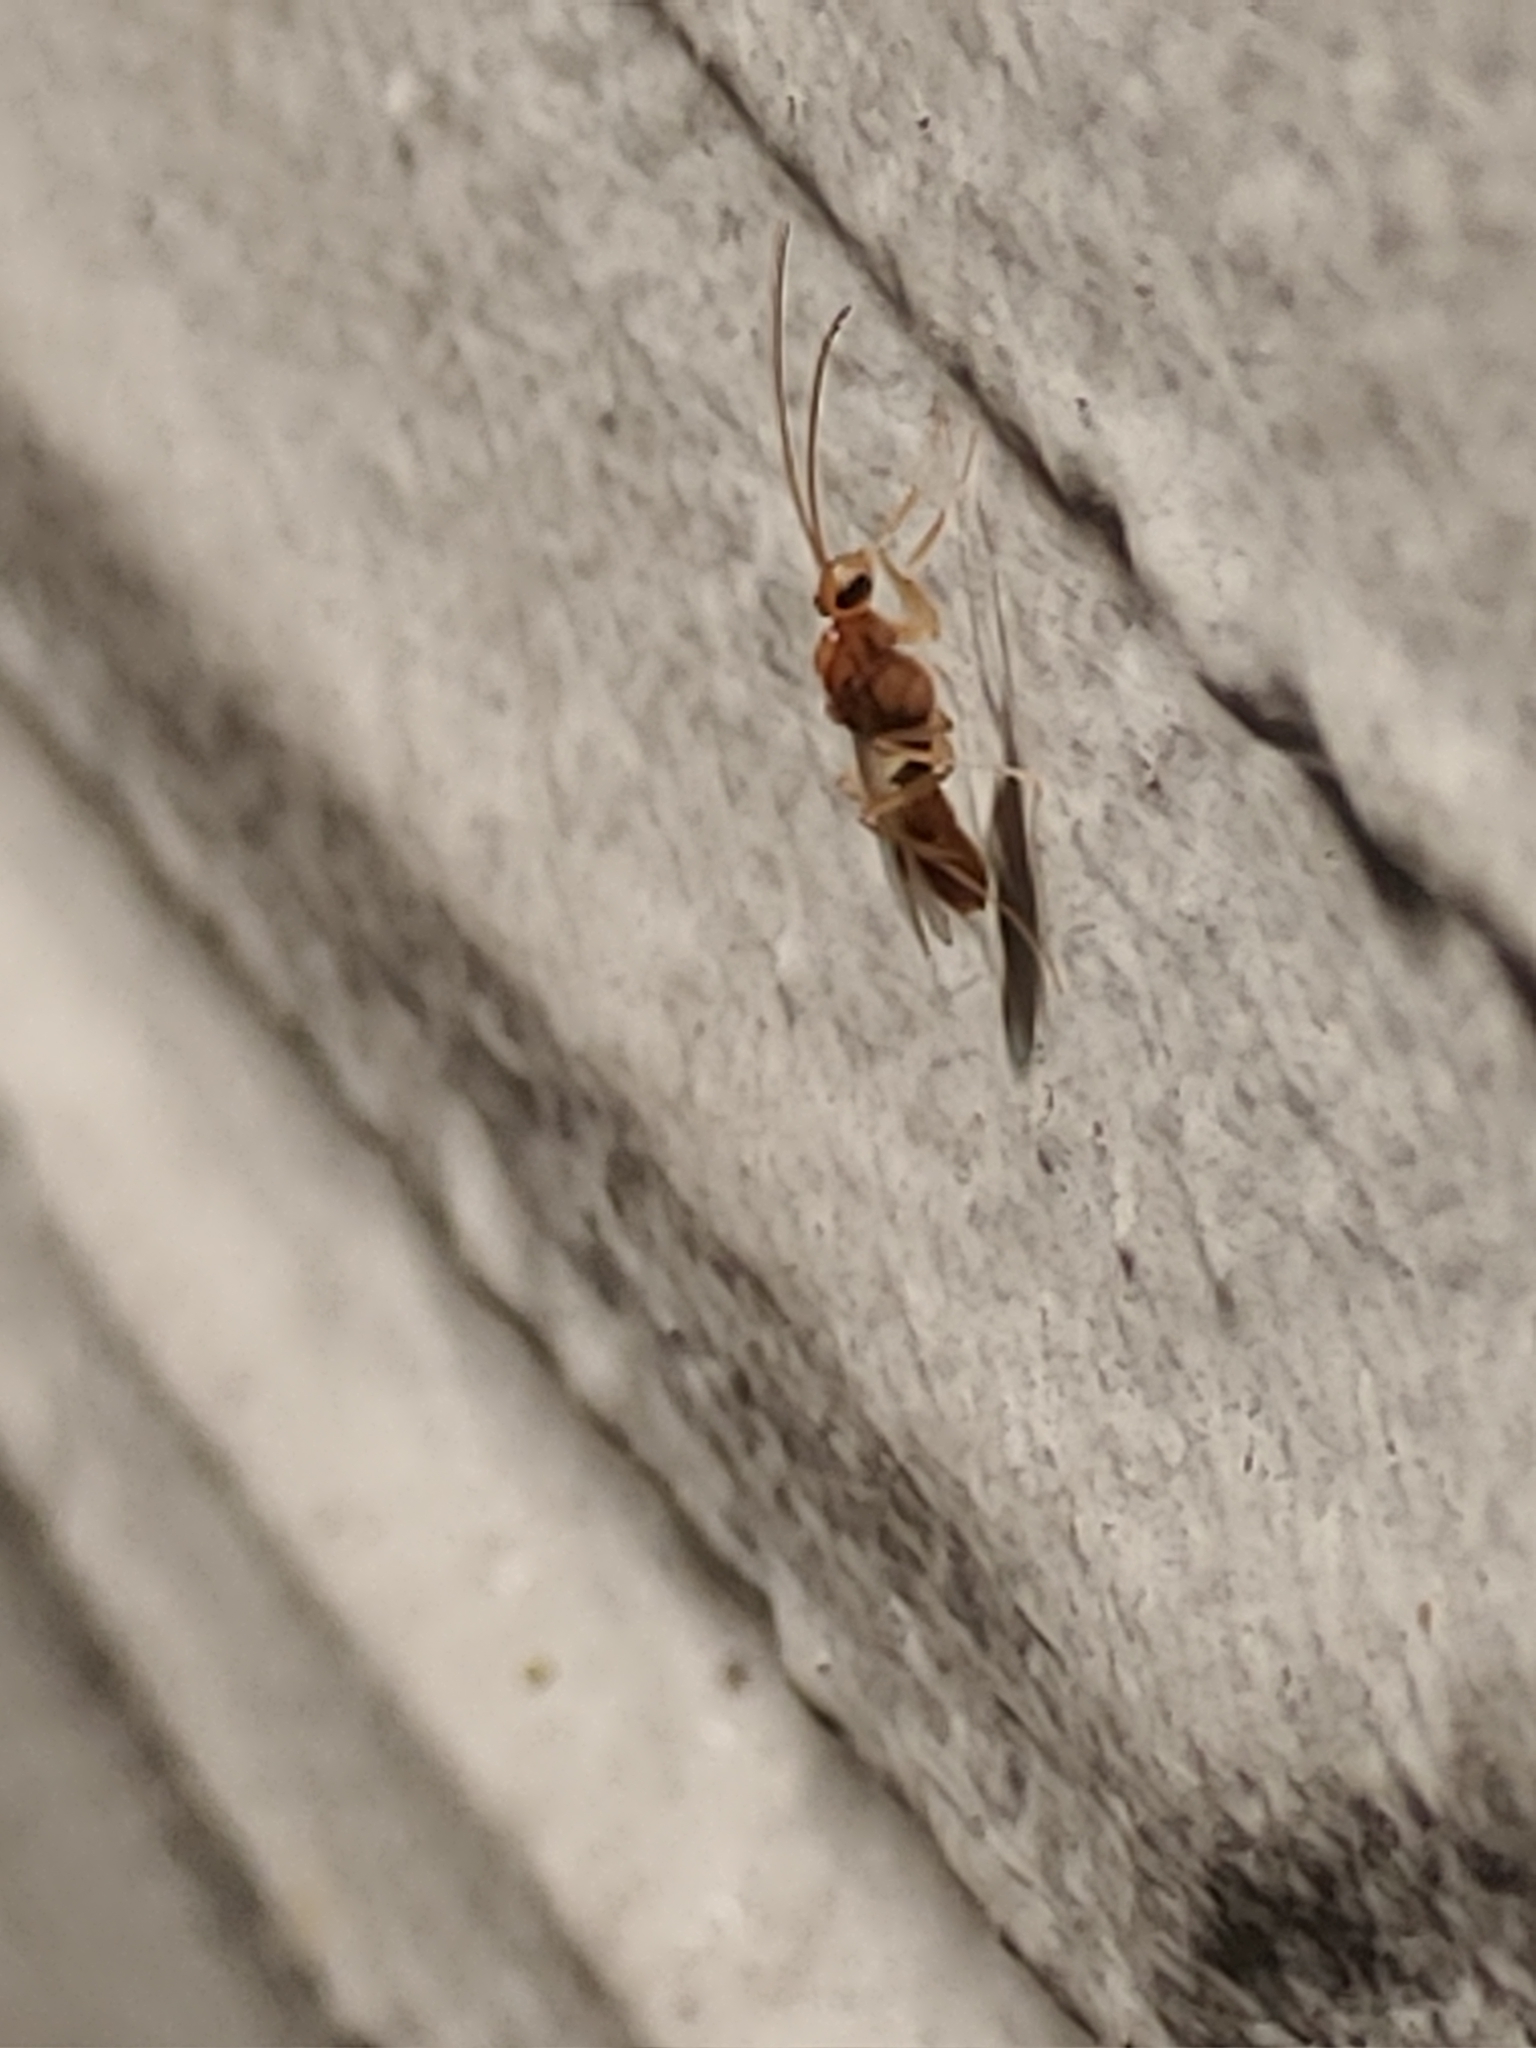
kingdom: Animalia
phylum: Arthropoda
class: Insecta
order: Hymenoptera
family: Formicidae
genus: Odontomachus
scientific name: Odontomachus ruginodis
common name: Trapjaw ant
